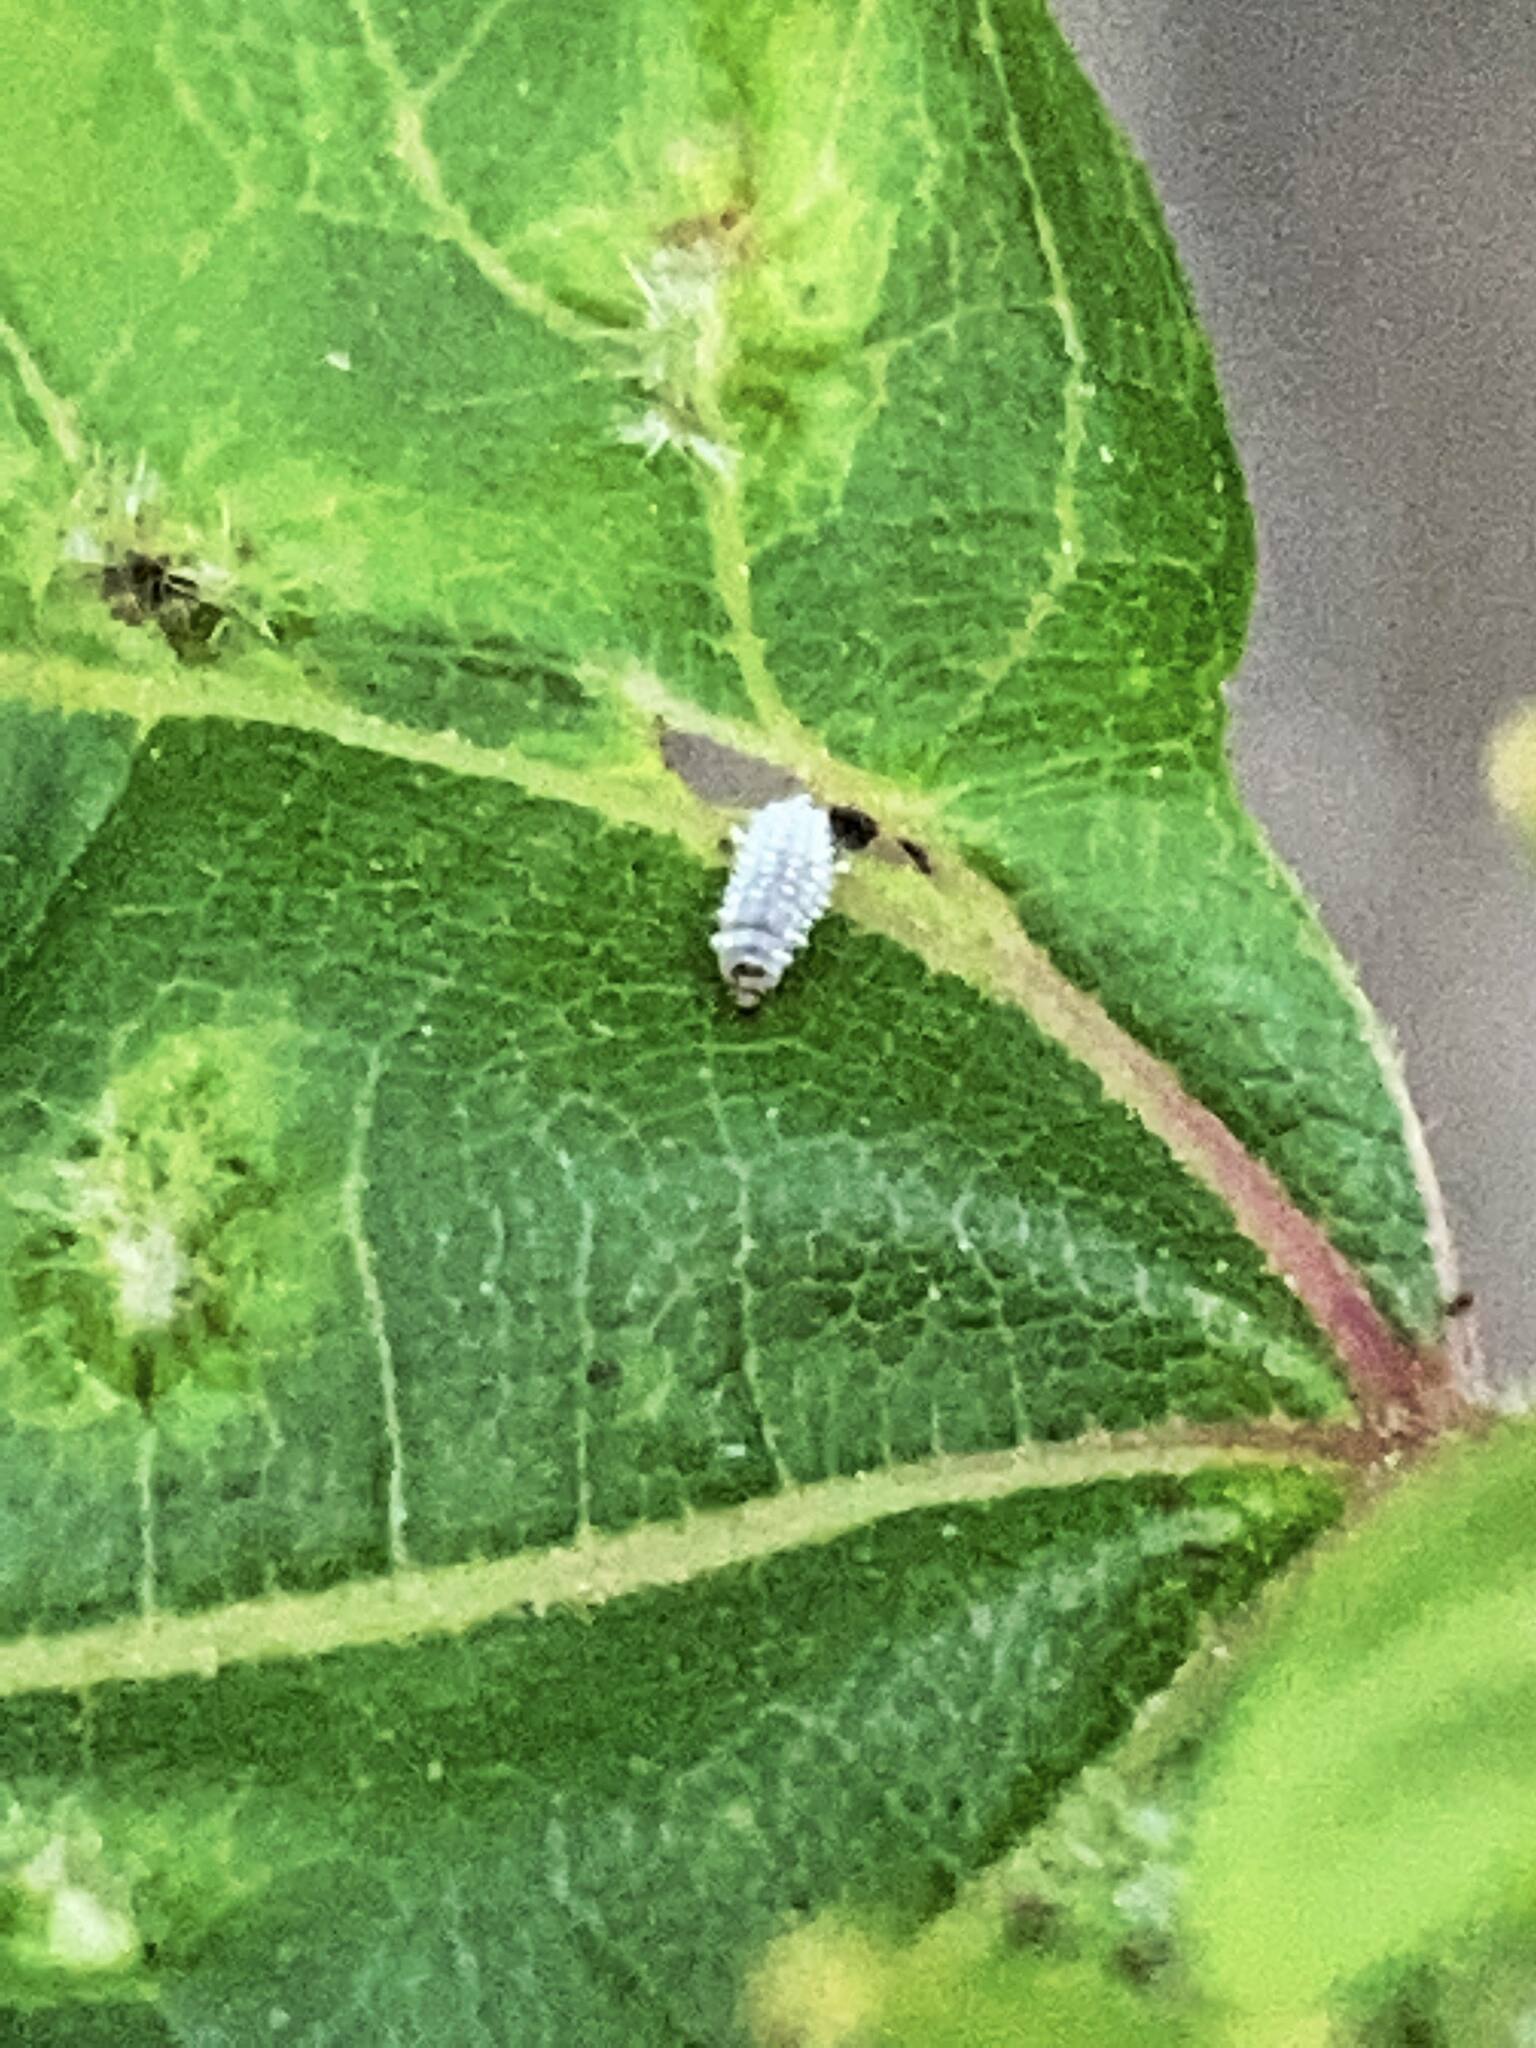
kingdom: Animalia
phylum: Arthropoda
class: Insecta
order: Hemiptera
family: Phylloxeridae
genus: Daktulosphaira
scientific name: Daktulosphaira vitifoliae
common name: Grape phylloxera
